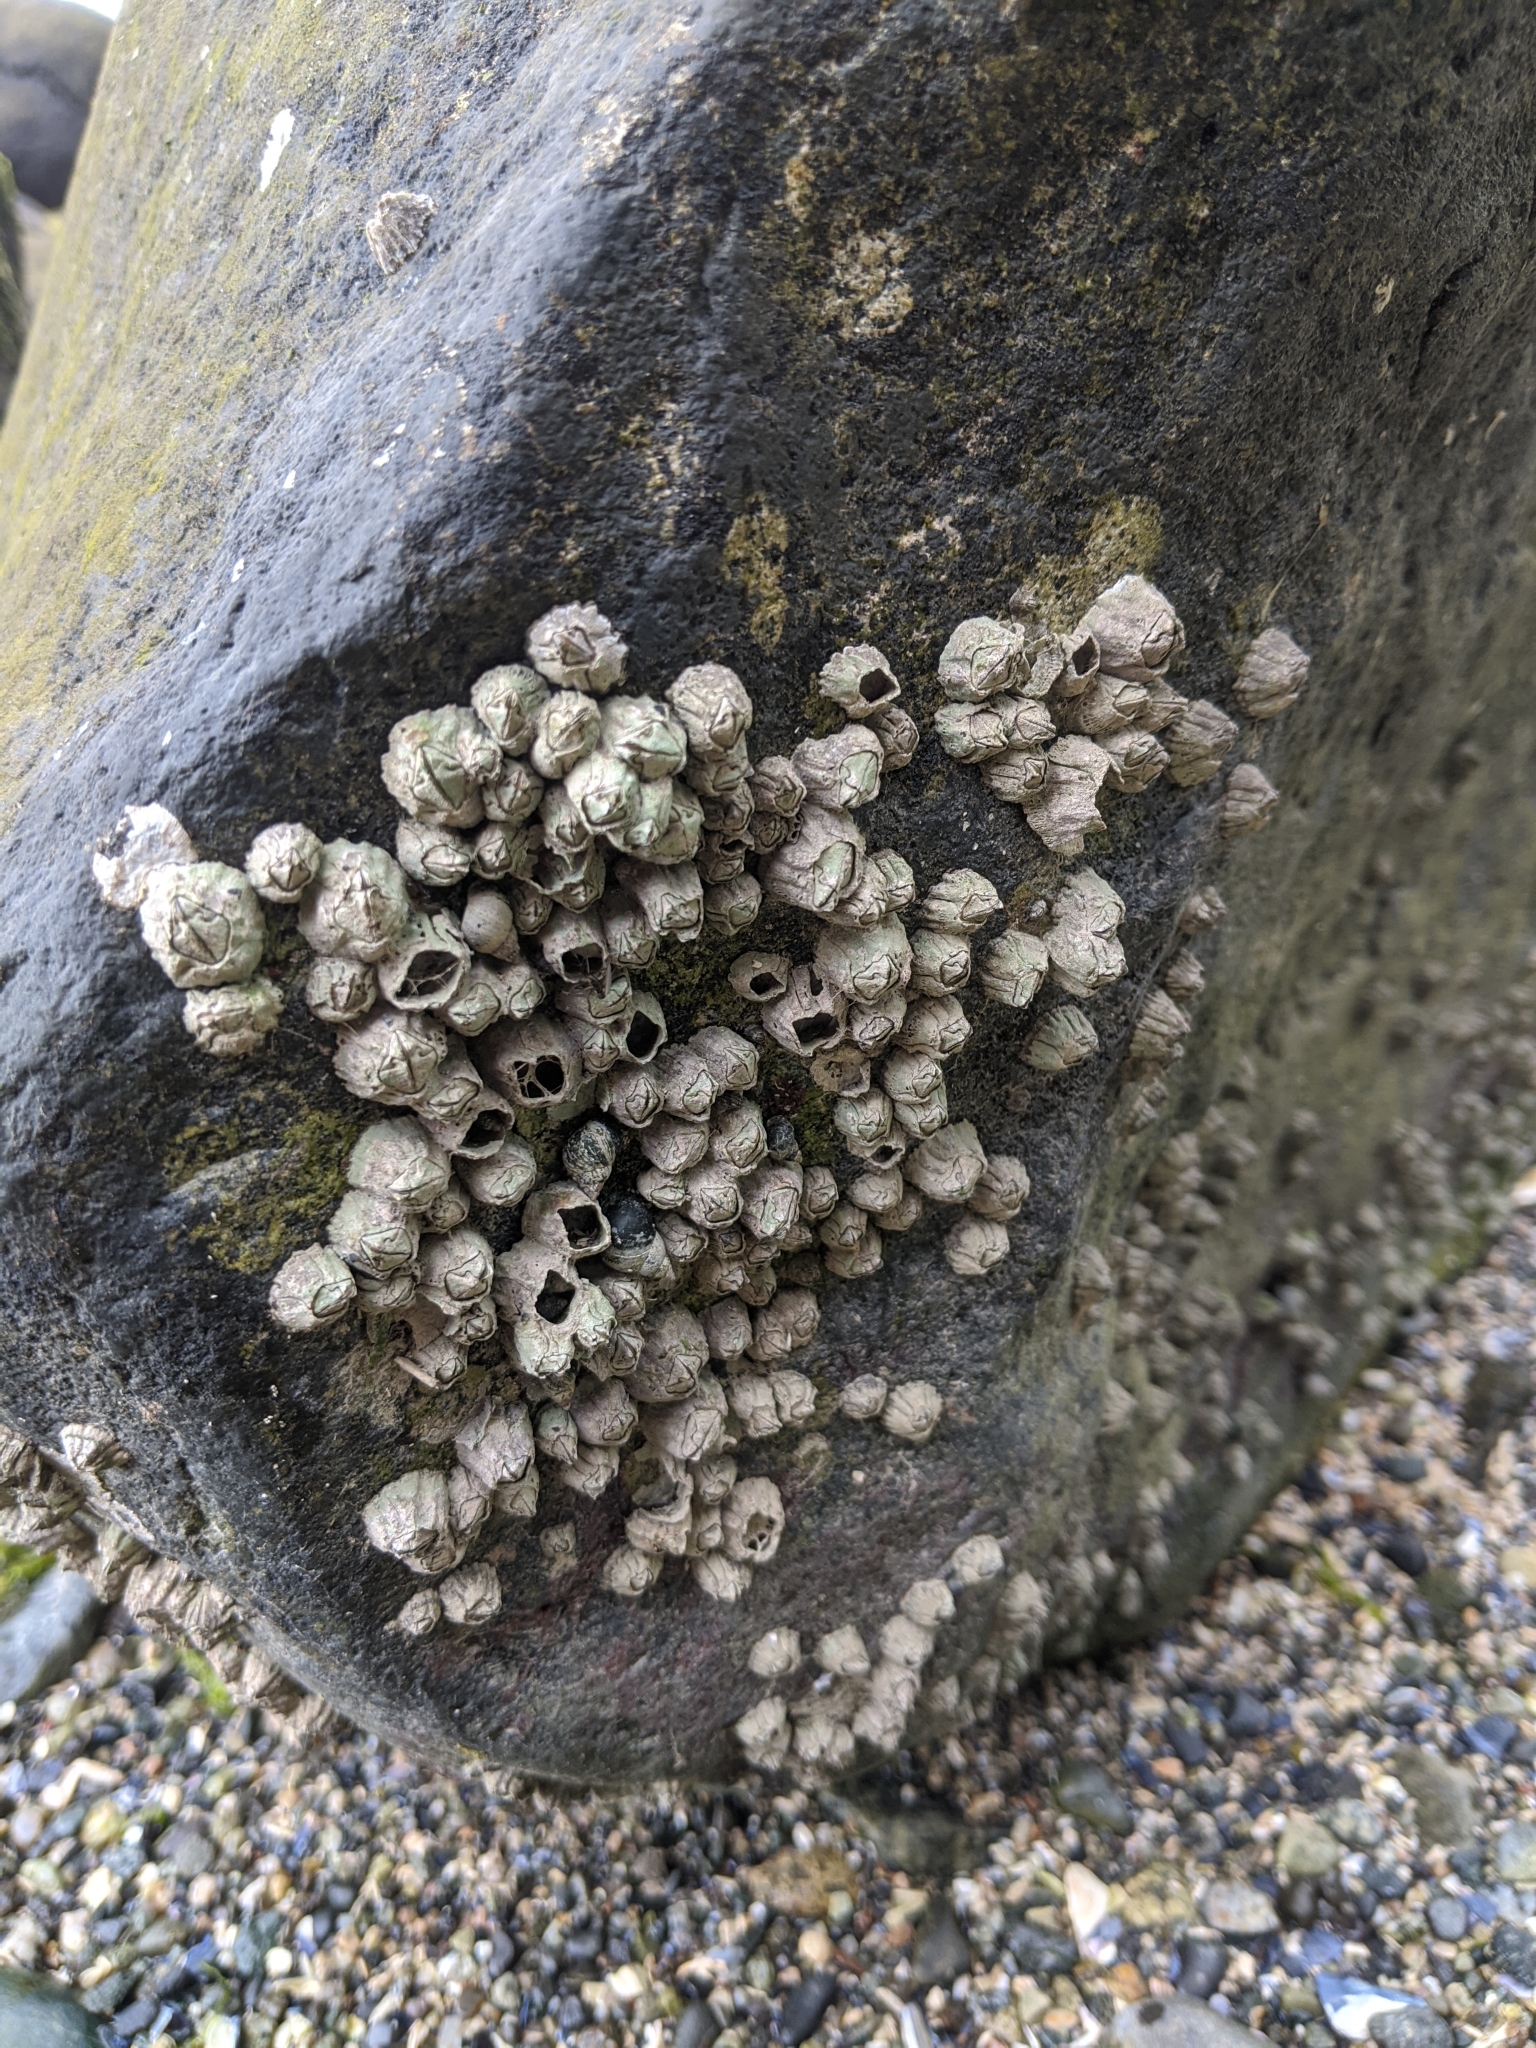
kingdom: Animalia
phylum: Arthropoda
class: Maxillopoda
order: Sessilia
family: Balanidae
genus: Balanus
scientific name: Balanus glandula
